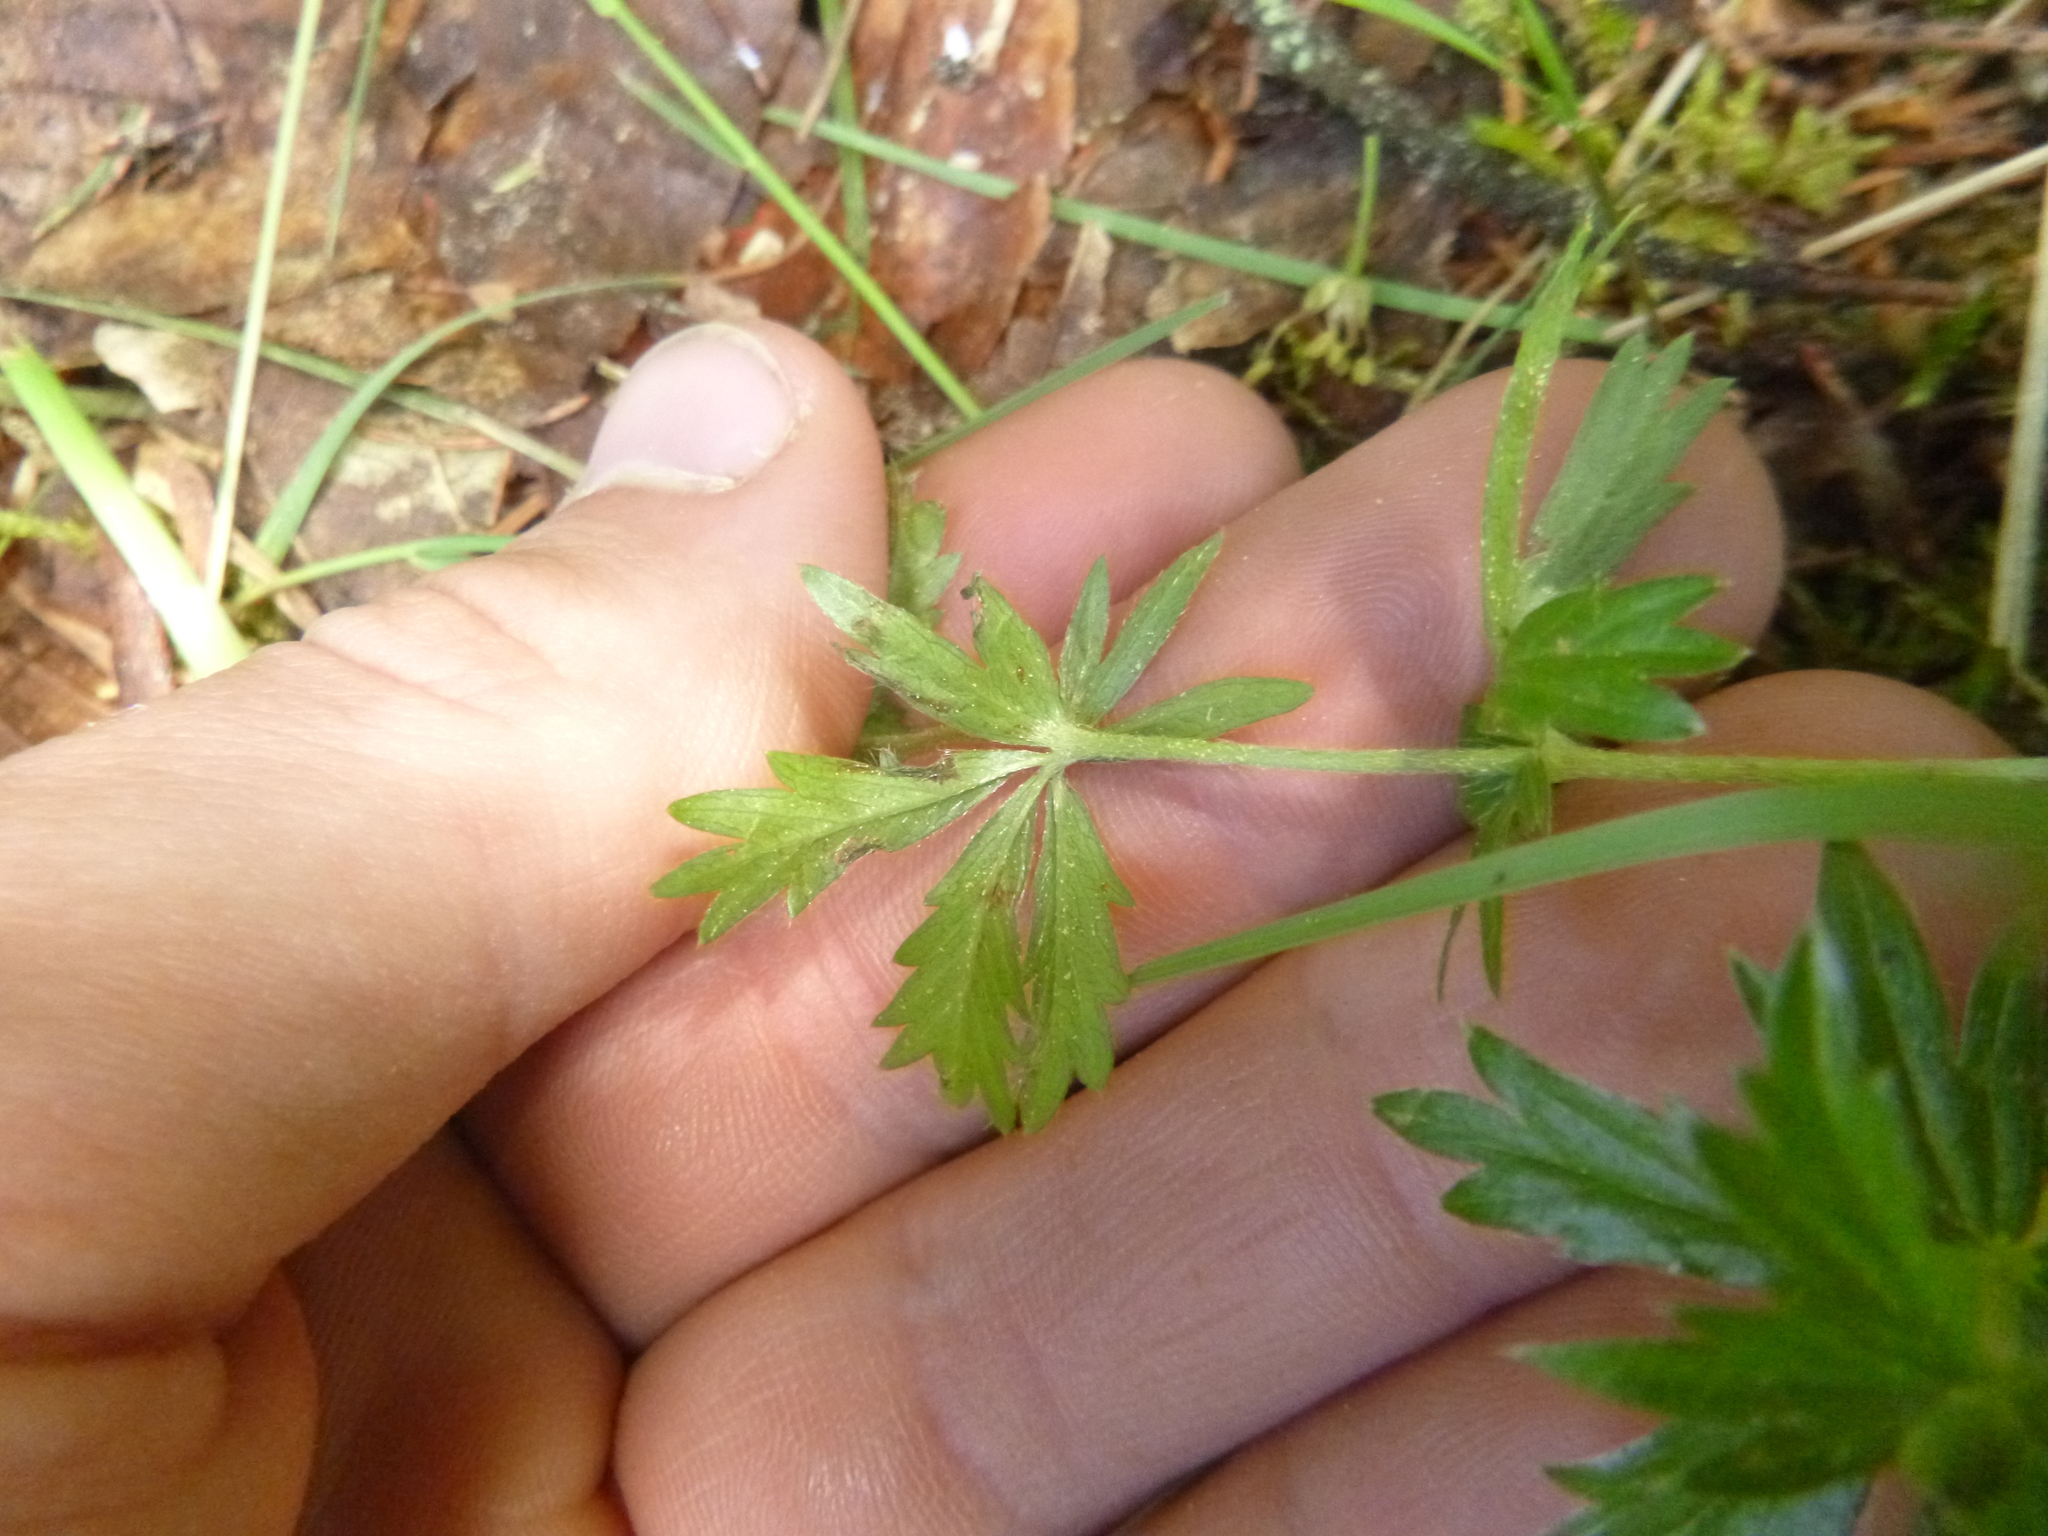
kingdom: Plantae
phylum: Tracheophyta
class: Magnoliopsida
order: Rosales
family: Rosaceae
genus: Potentilla
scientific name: Potentilla erecta
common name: Tormentil
